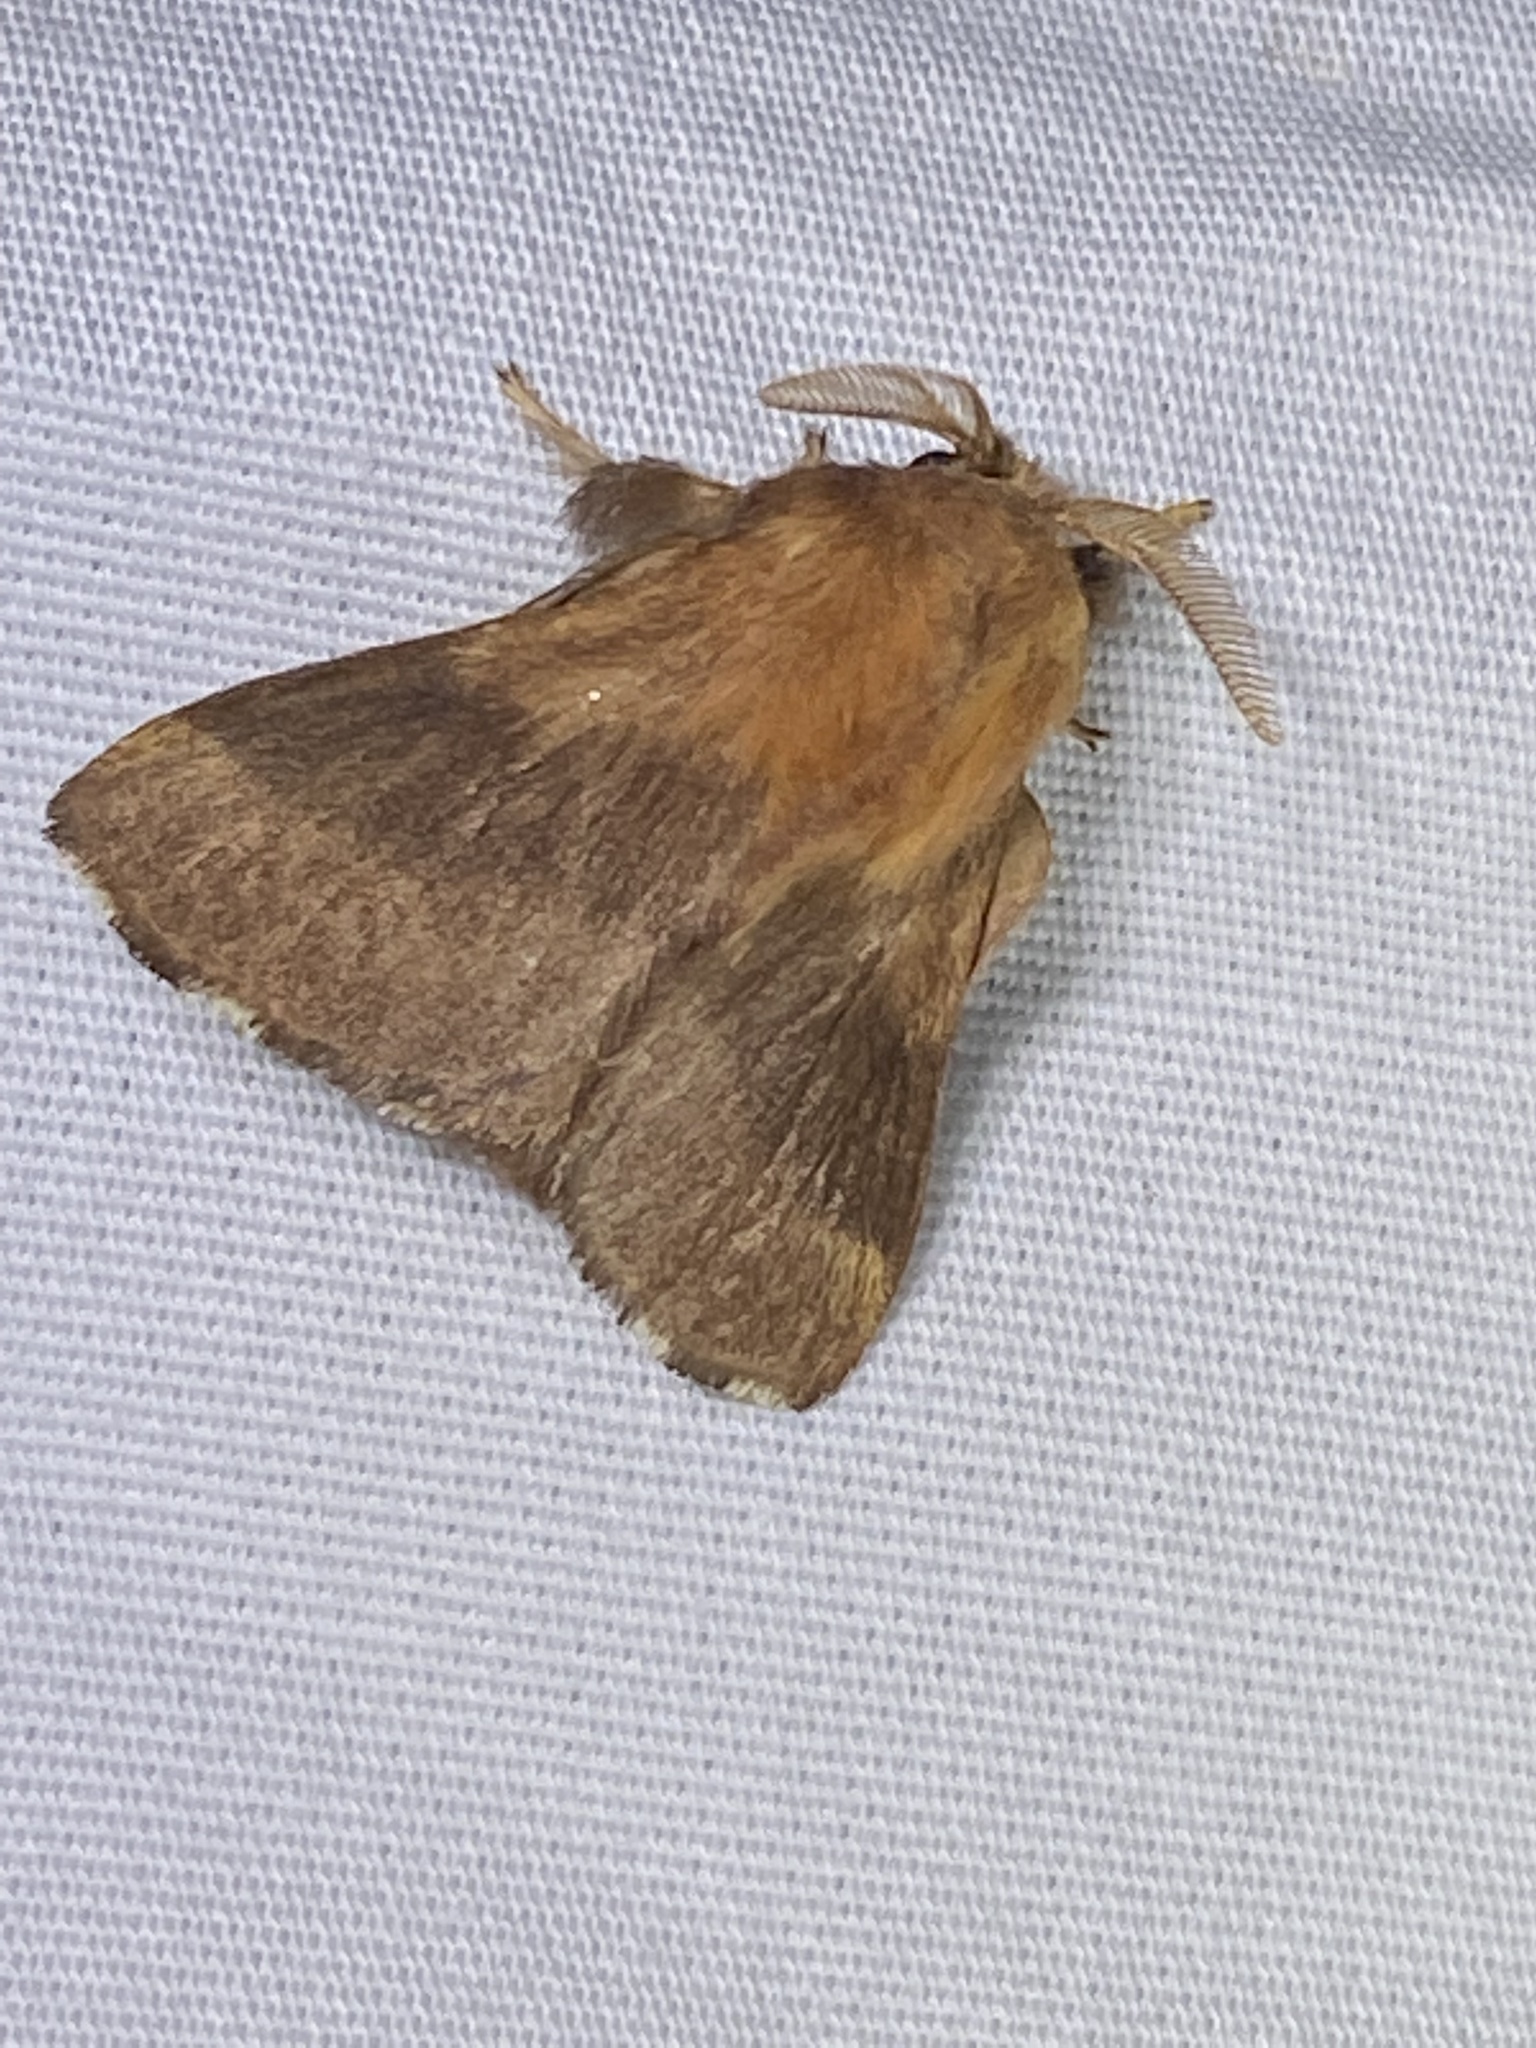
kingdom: Animalia
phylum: Arthropoda
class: Insecta
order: Lepidoptera
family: Lasiocampidae
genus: Malacosoma
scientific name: Malacosoma disstria
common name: Forest tent caterpillar
